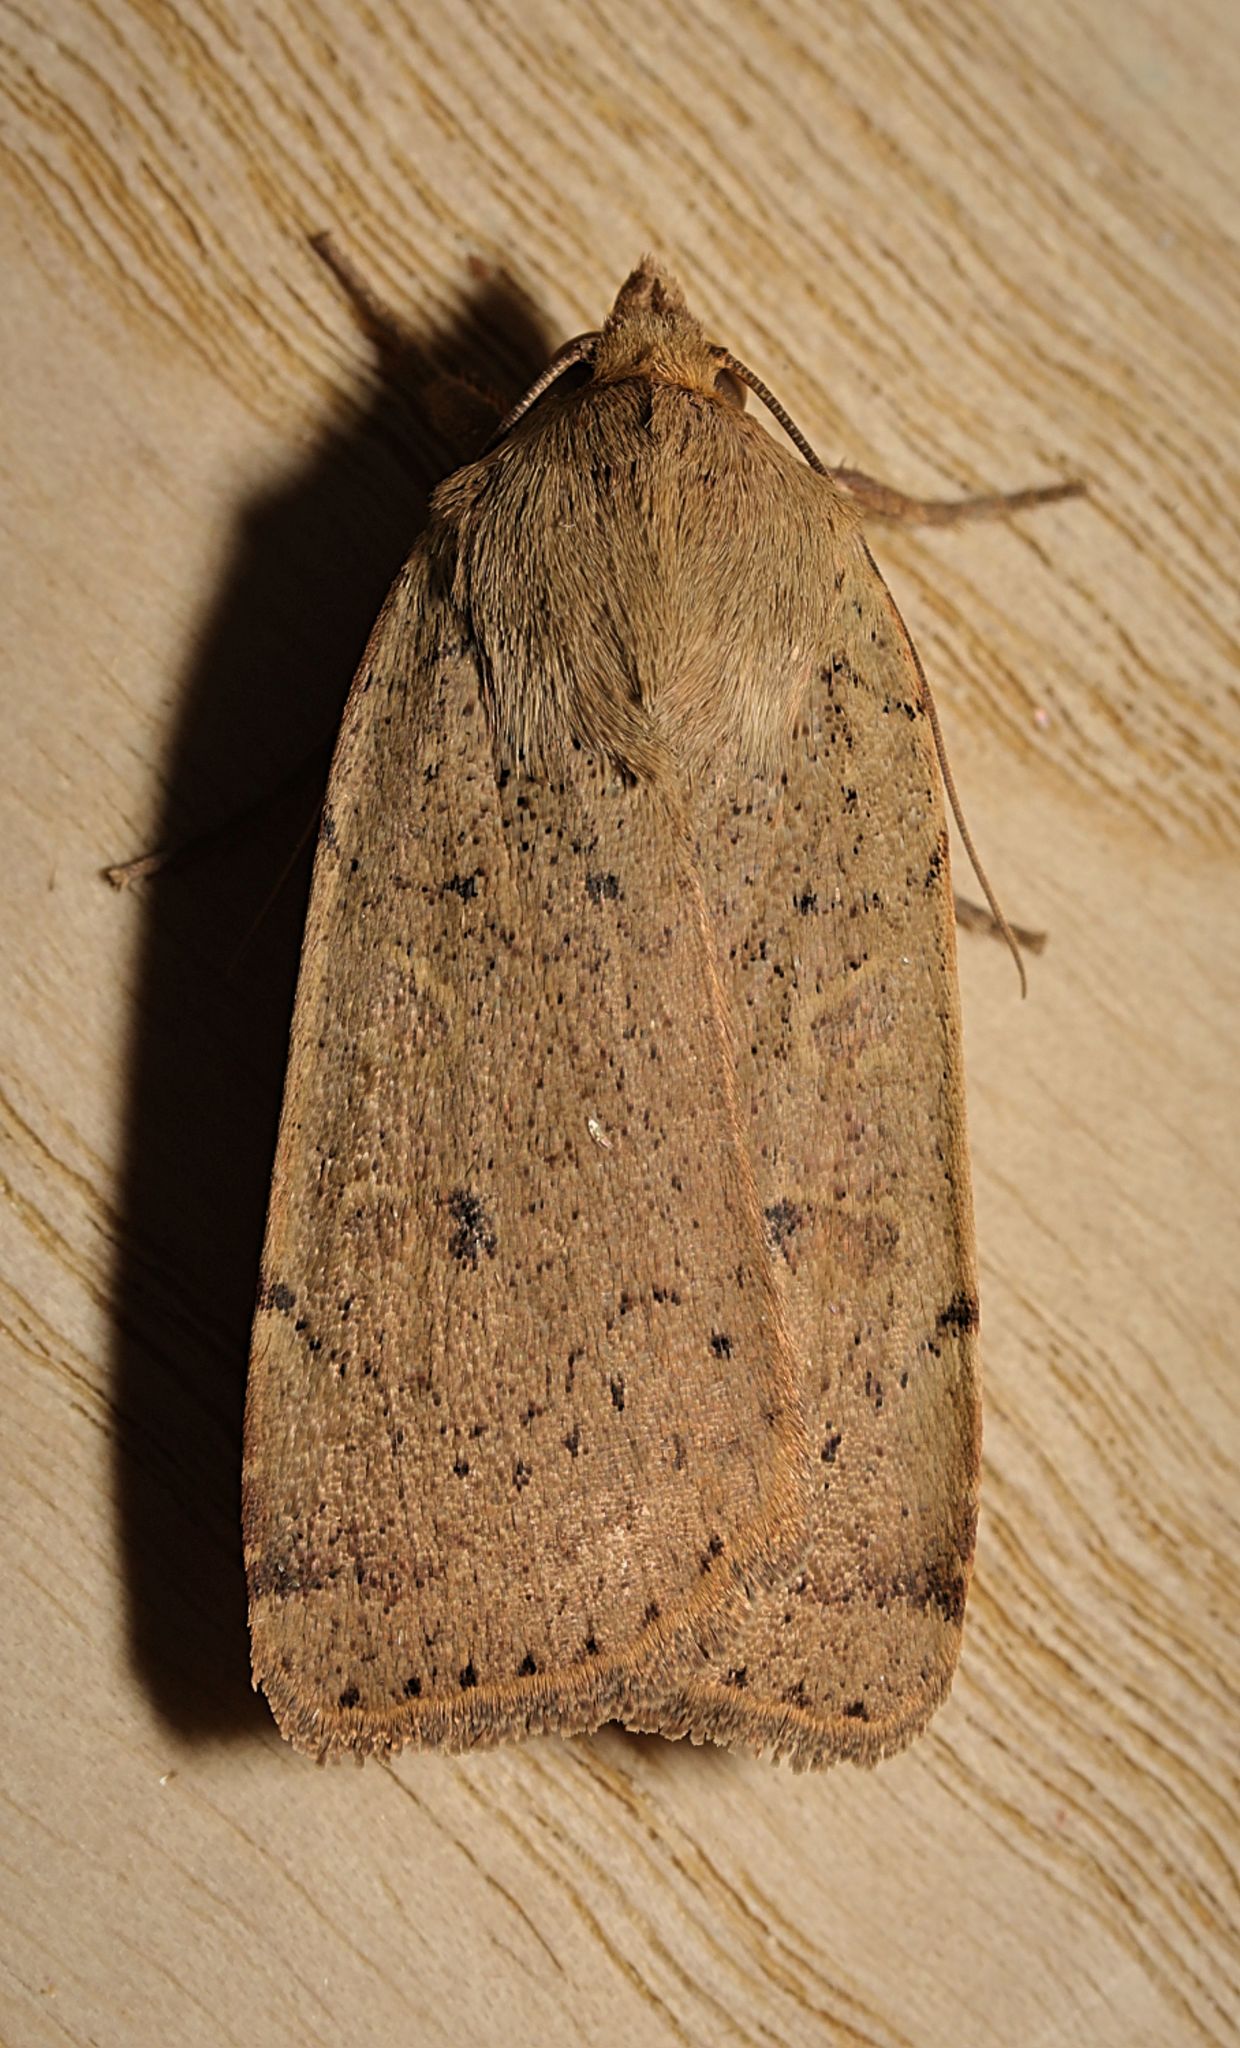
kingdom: Animalia
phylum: Arthropoda
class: Insecta
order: Lepidoptera
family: Noctuidae
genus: Noctua
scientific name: Noctua comes
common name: Lesser yellow underwing
